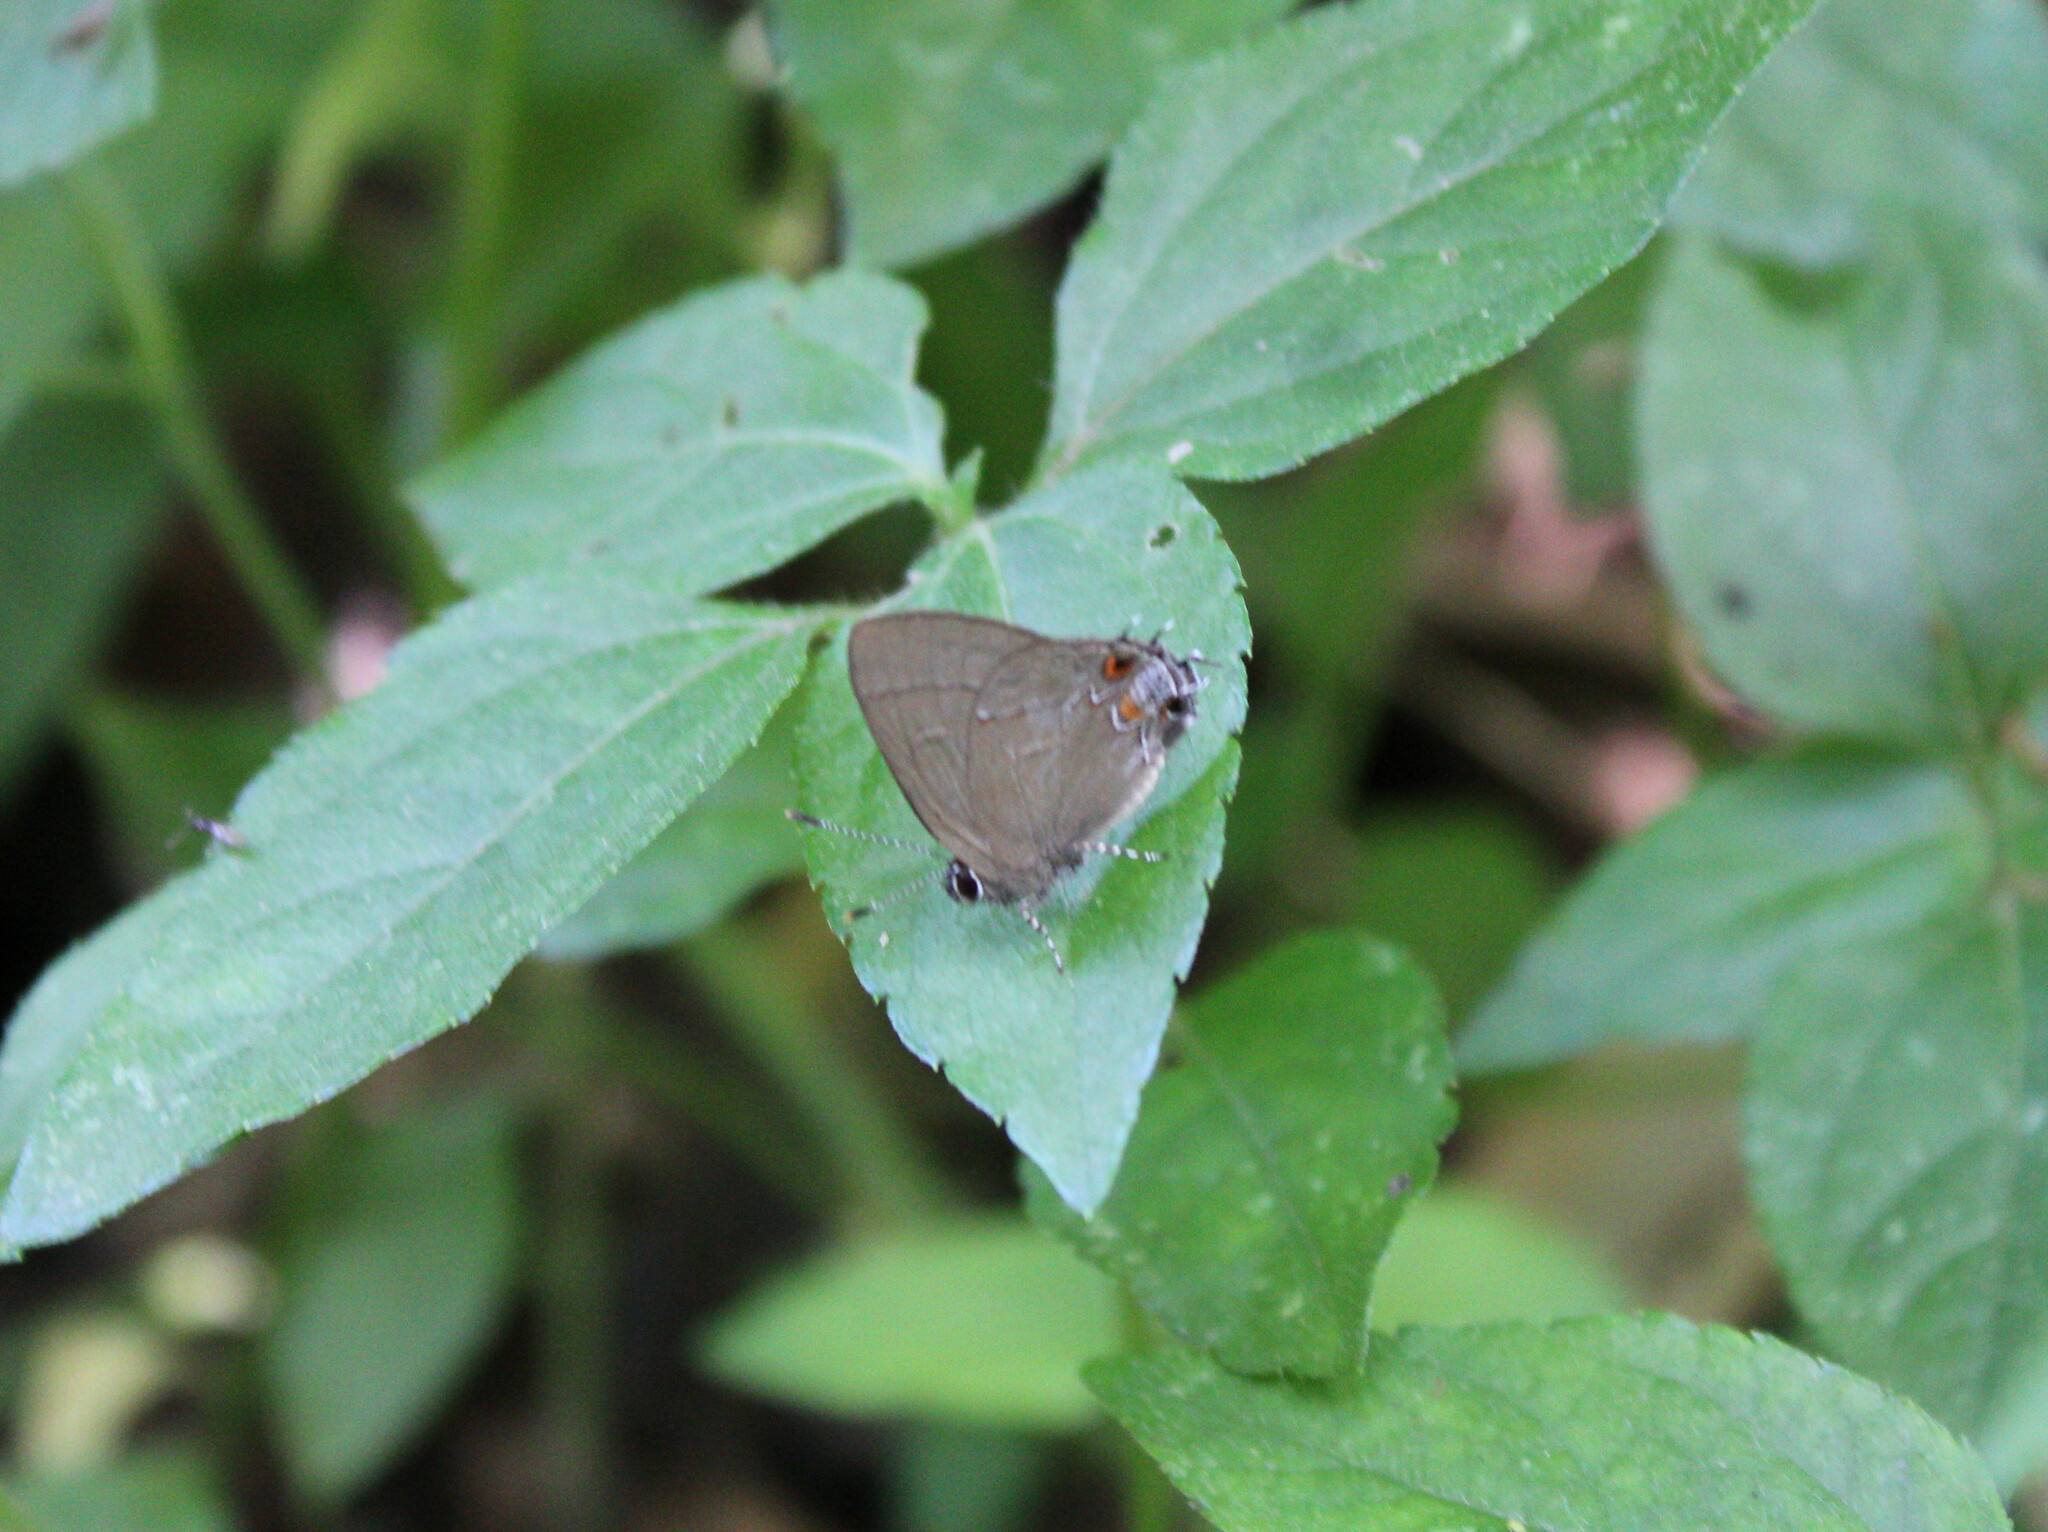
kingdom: Animalia
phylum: Arthropoda
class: Insecta
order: Lepidoptera
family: Lycaenidae
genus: Calycopis
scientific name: Calycopis
